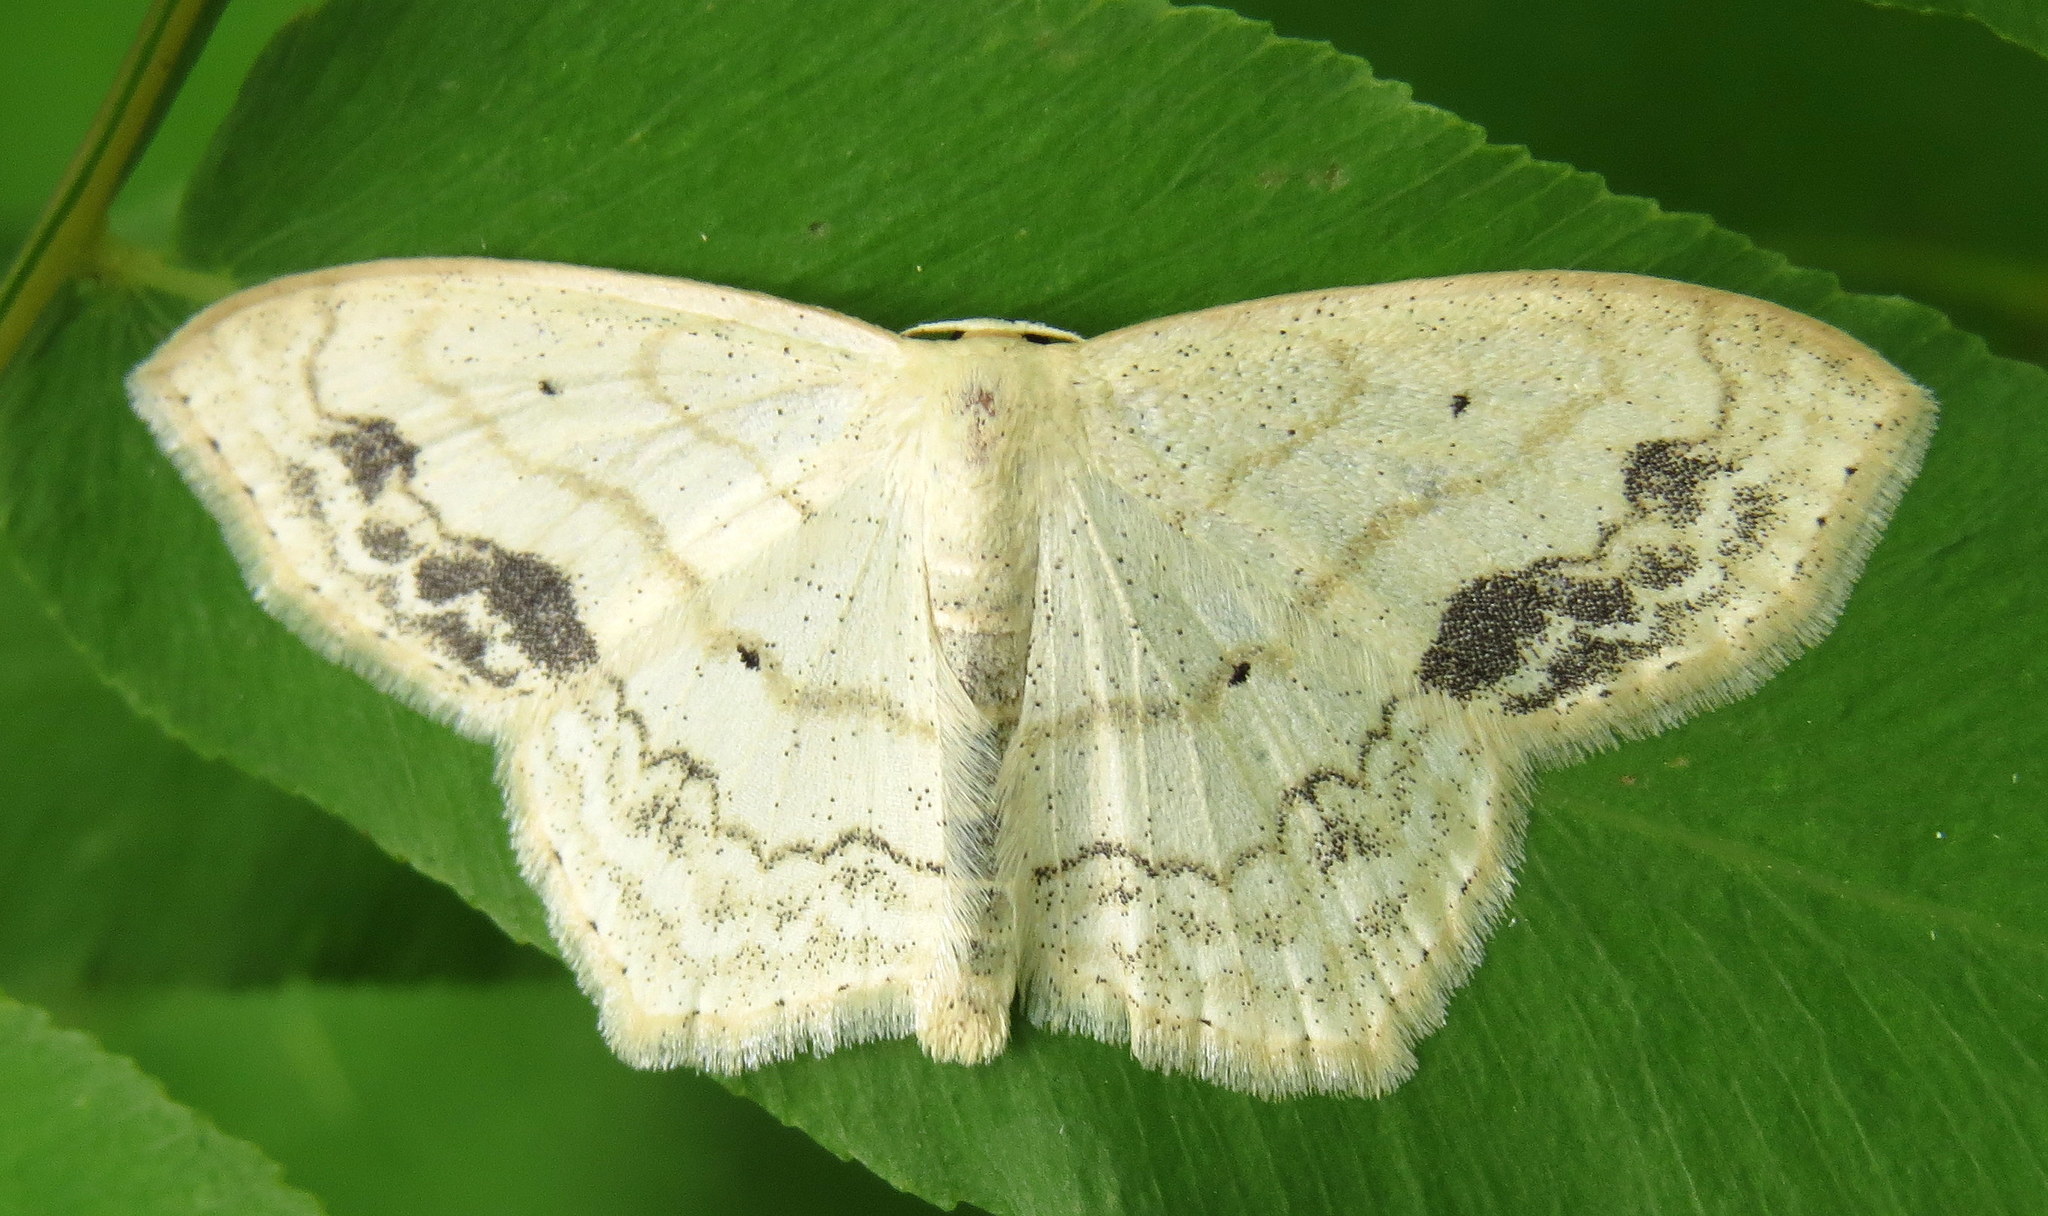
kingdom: Animalia
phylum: Arthropoda
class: Insecta
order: Lepidoptera
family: Geometridae
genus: Scopula
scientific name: Scopula limboundata
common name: Large lace border
